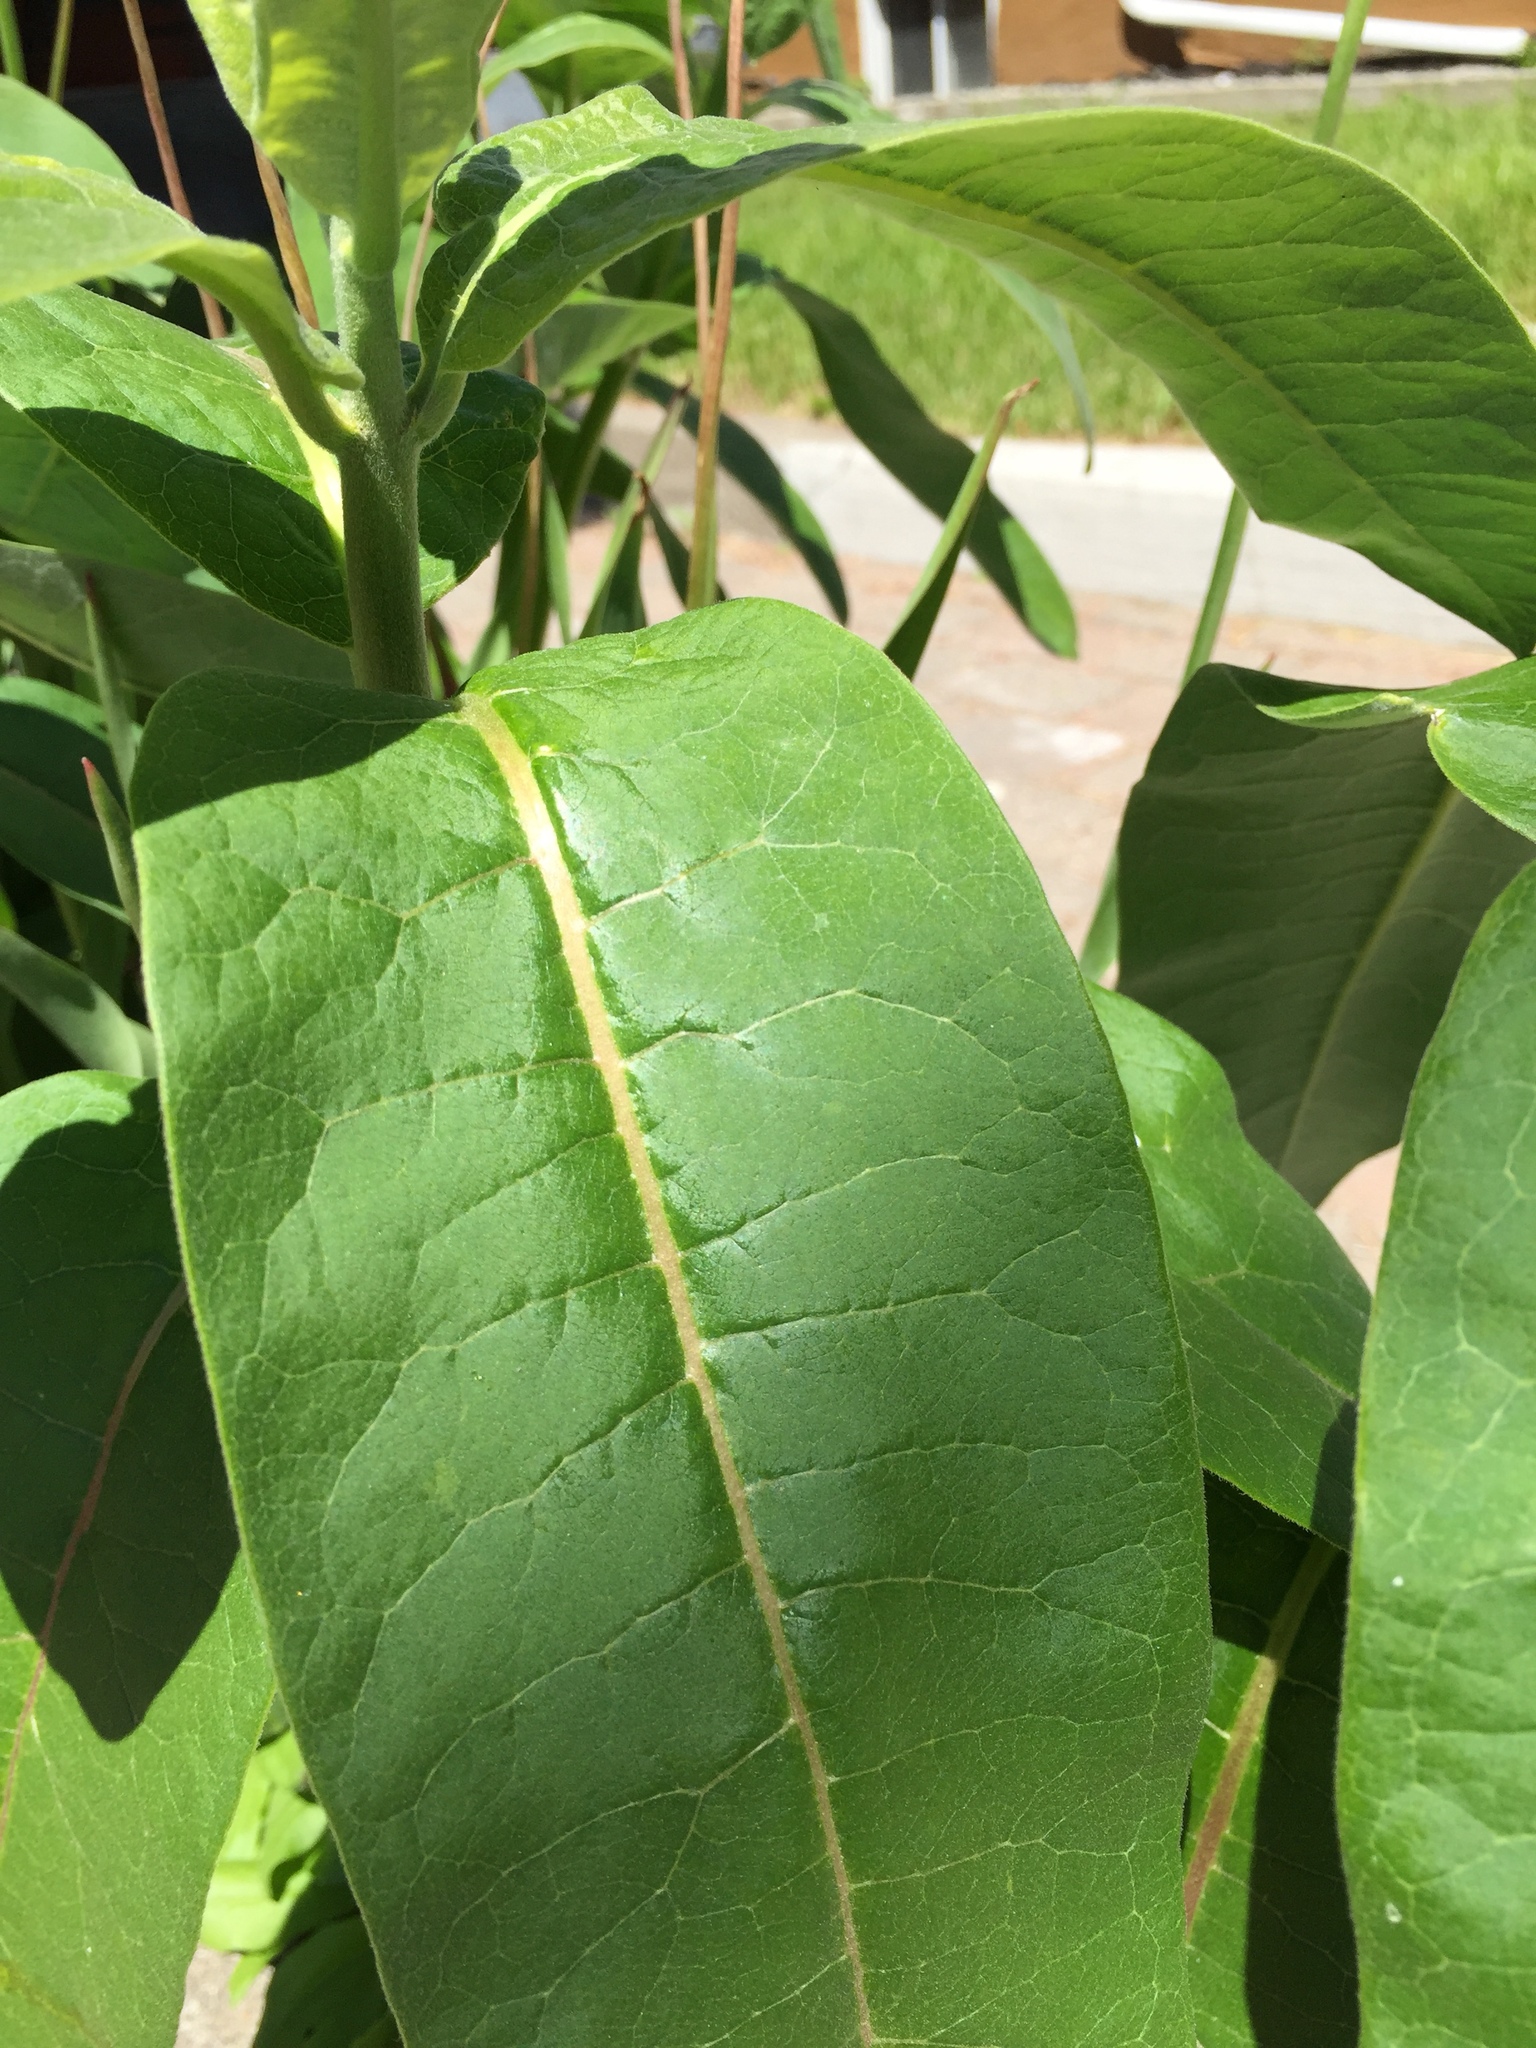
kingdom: Plantae
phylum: Tracheophyta
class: Magnoliopsida
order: Gentianales
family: Apocynaceae
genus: Asclepias
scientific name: Asclepias syriaca
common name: Common milkweed
